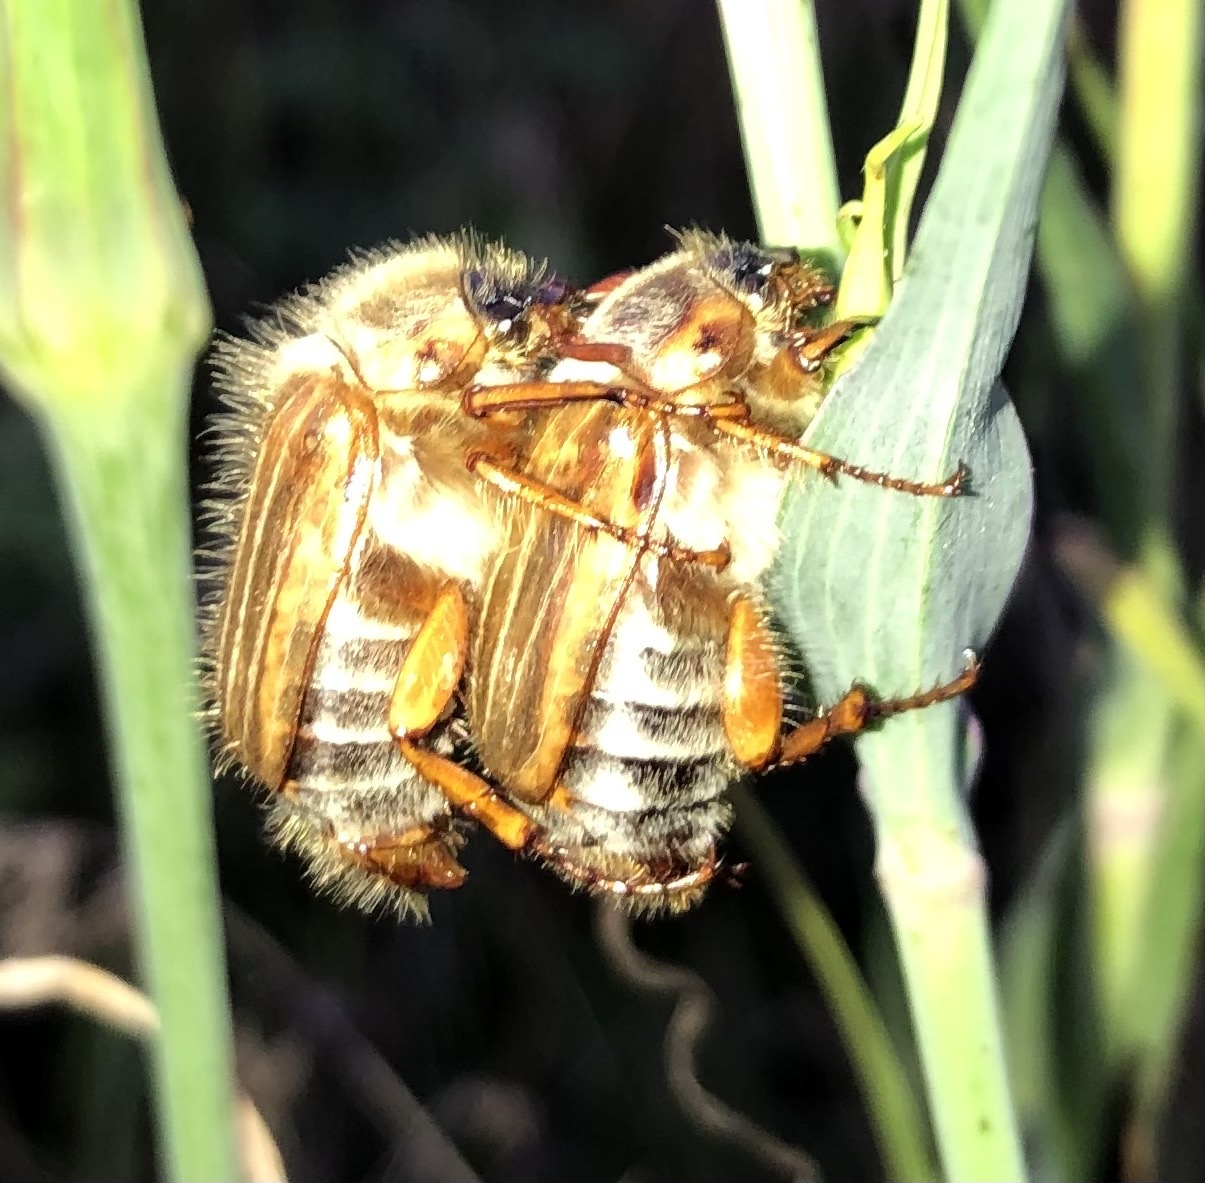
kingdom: Animalia
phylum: Arthropoda
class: Insecta
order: Coleoptera
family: Scarabaeidae
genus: Amphimallon
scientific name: Amphimallon solstitiale
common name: Summer chafer
